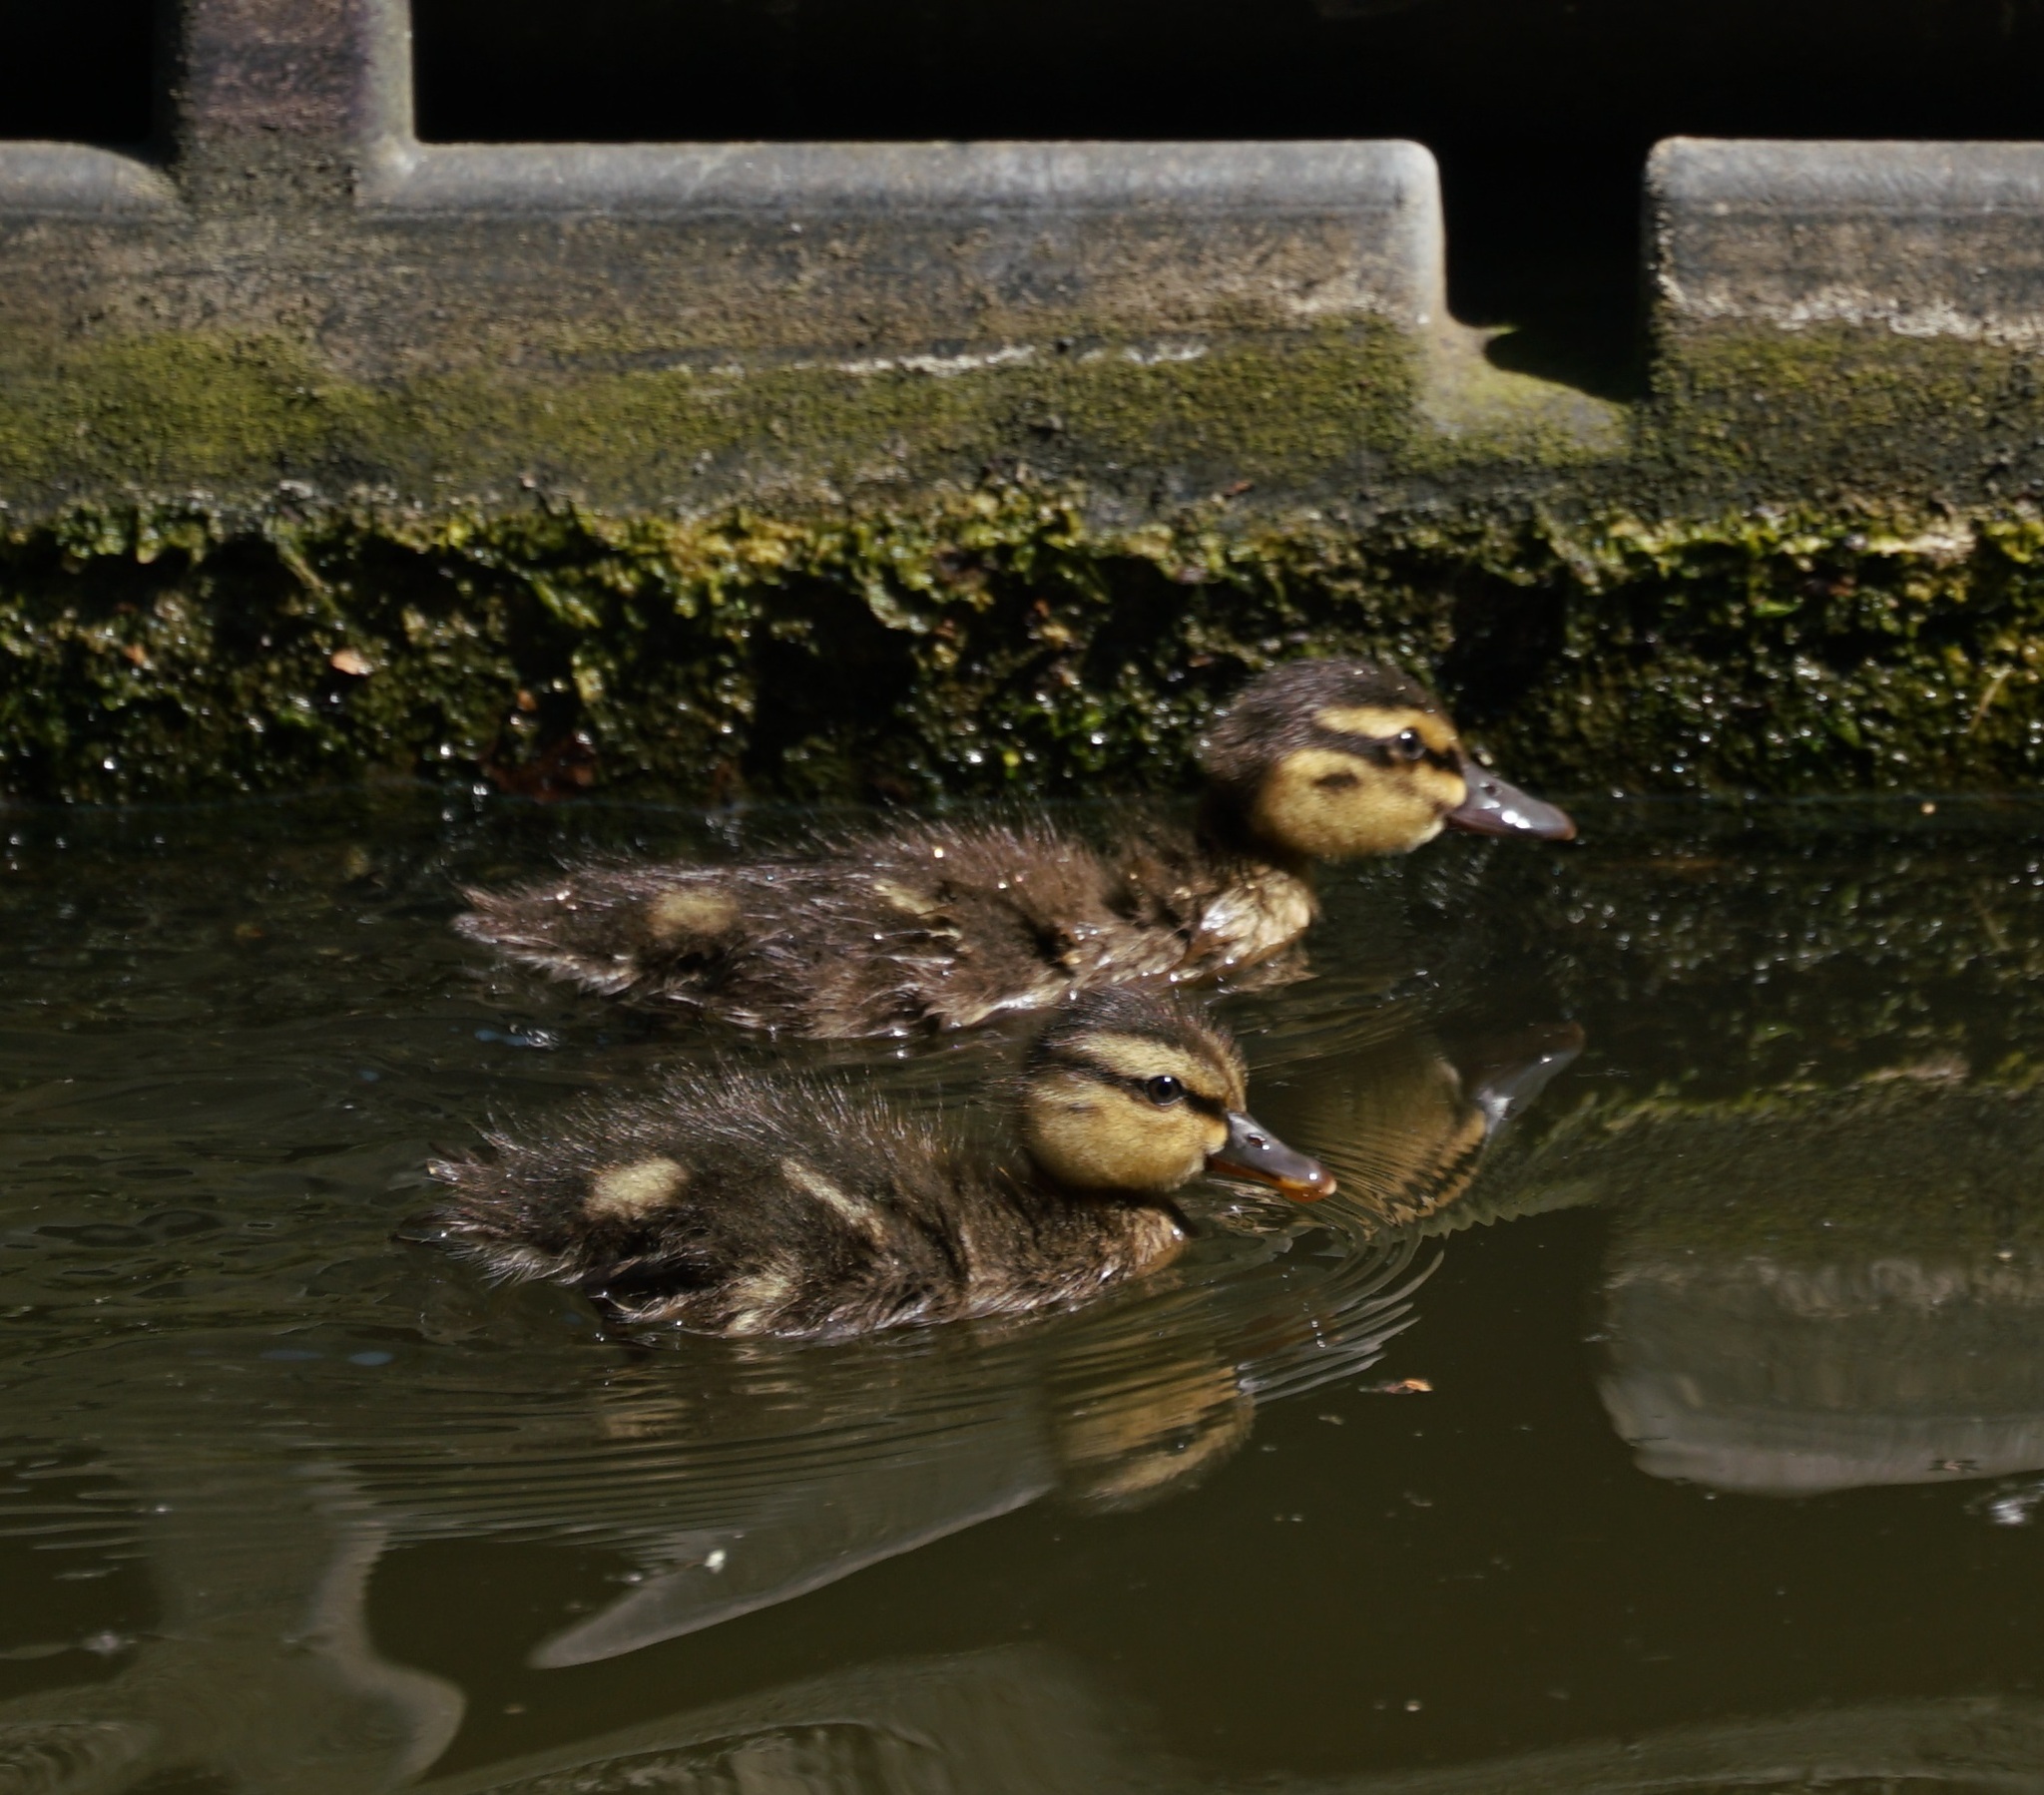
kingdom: Animalia
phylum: Chordata
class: Aves
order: Anseriformes
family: Anatidae
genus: Anas
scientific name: Anas platyrhynchos
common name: Mallard
